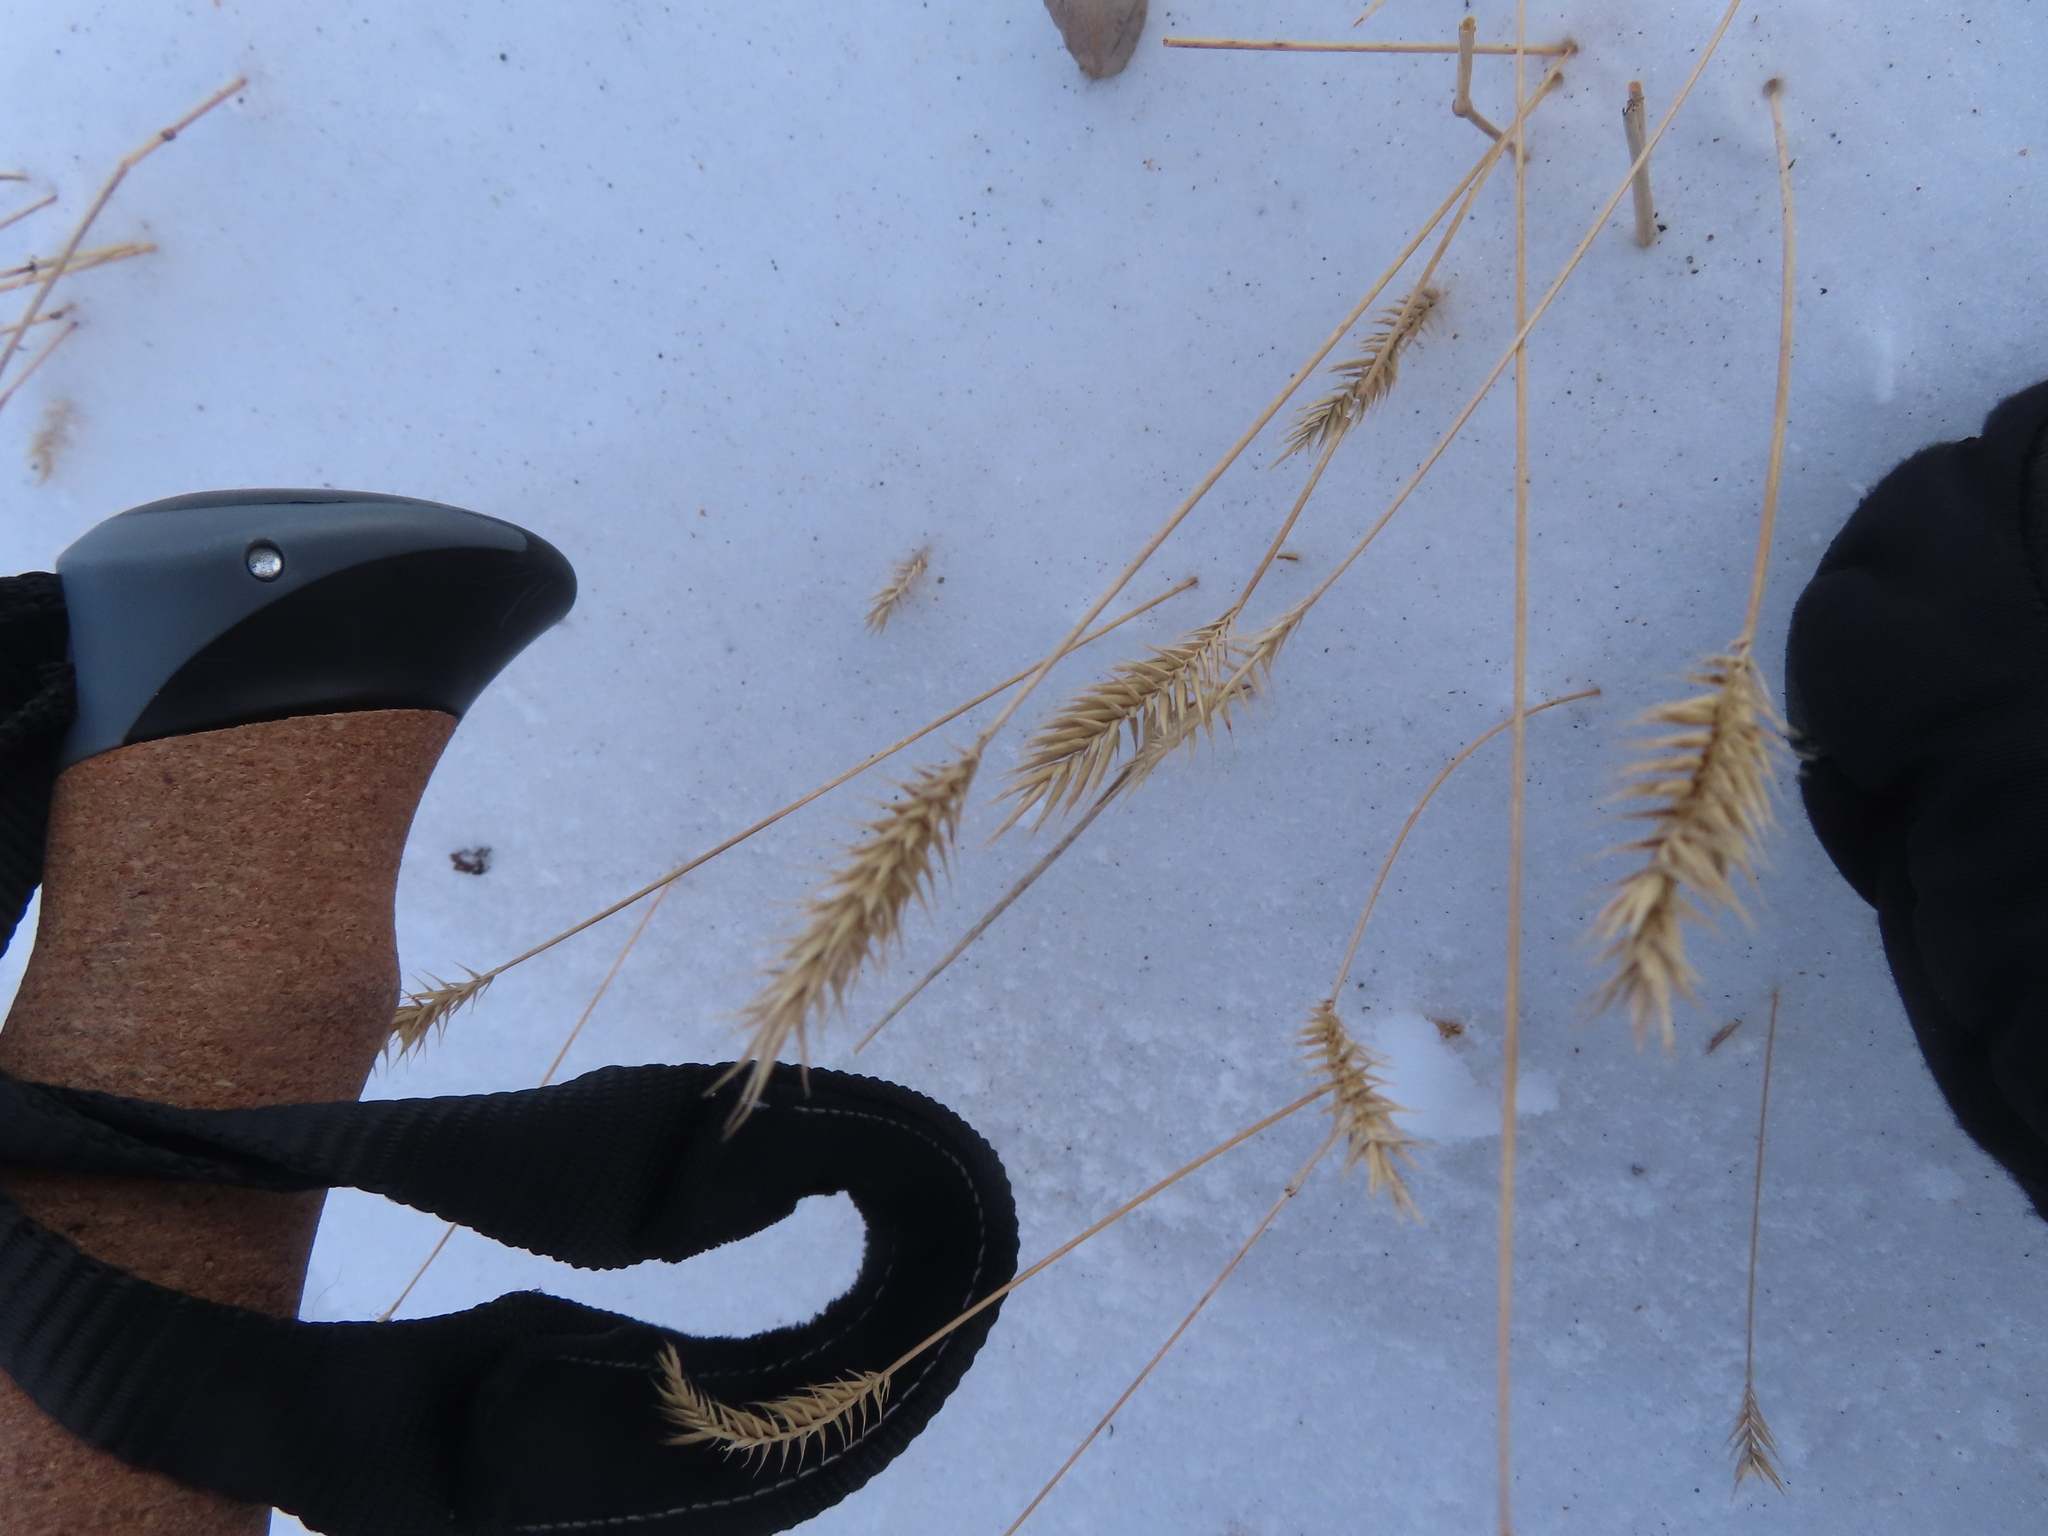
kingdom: Plantae
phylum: Tracheophyta
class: Liliopsida
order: Poales
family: Poaceae
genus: Agropyron
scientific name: Agropyron cristatum
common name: Crested wheatgrass
